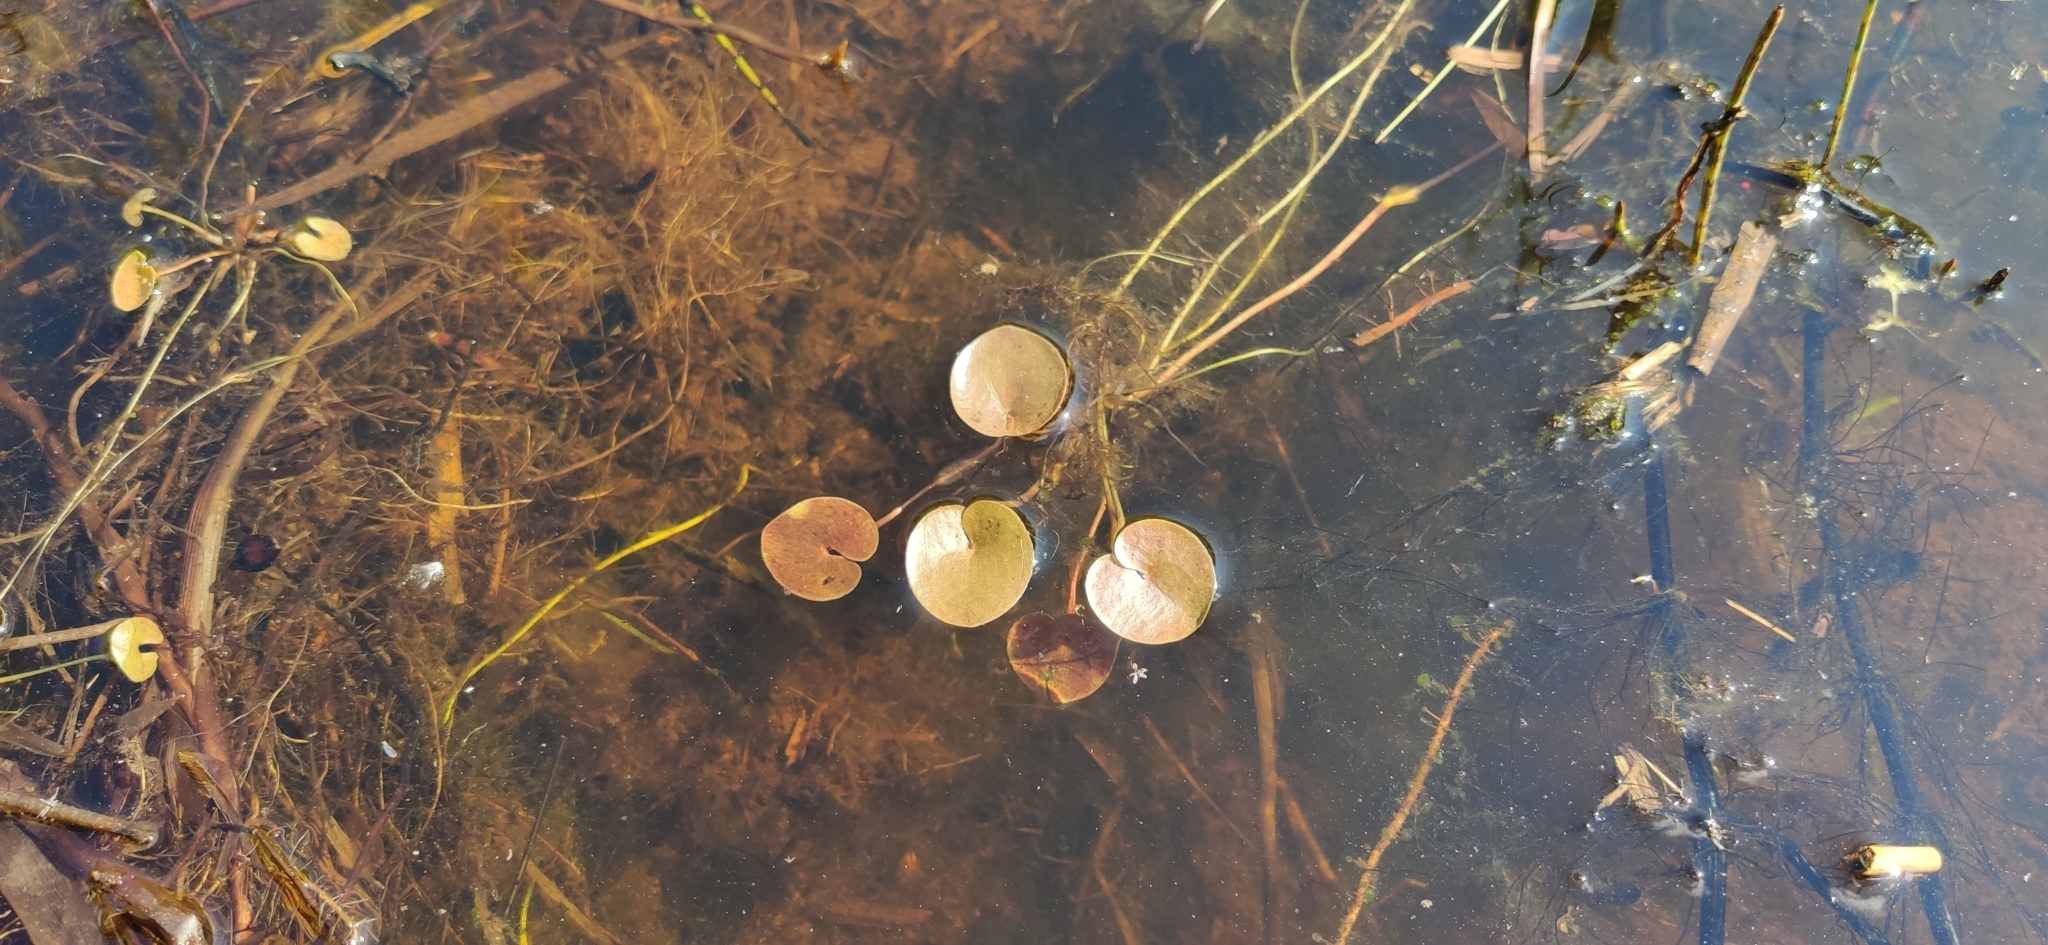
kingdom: Plantae
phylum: Tracheophyta
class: Liliopsida
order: Alismatales
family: Hydrocharitaceae
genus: Hydrocharis
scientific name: Hydrocharis morsus-ranae
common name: Frogbit
